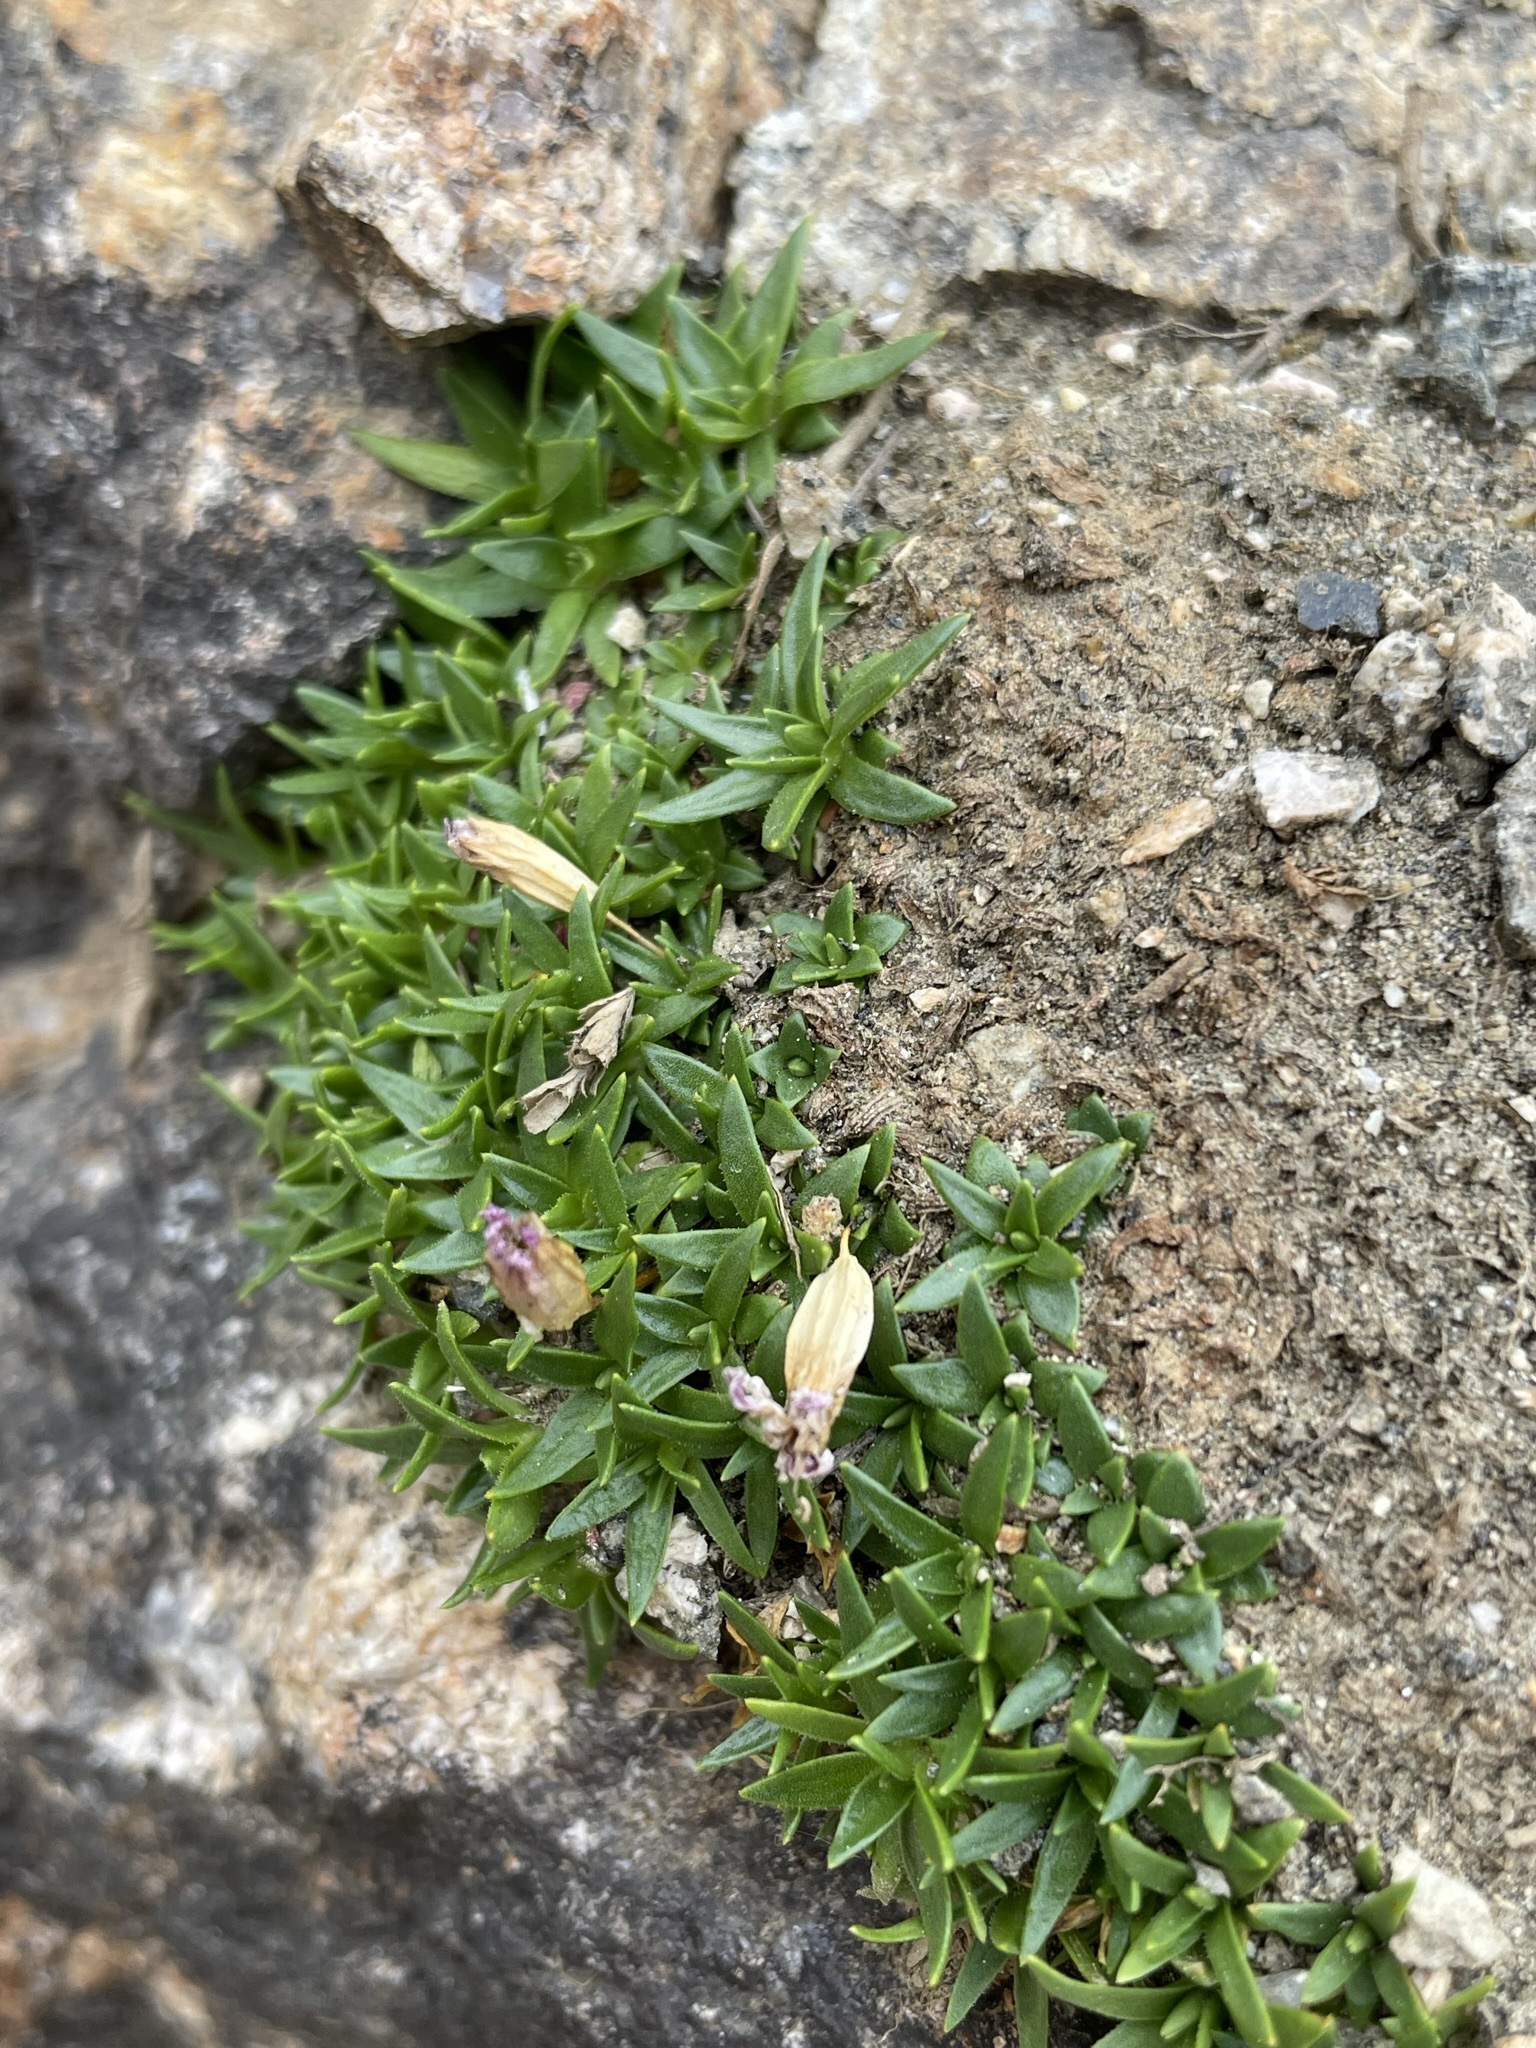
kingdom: Plantae
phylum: Tracheophyta
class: Magnoliopsida
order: Caryophyllales
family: Caryophyllaceae
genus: Silene
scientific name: Silene acaulis
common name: Moss campion
